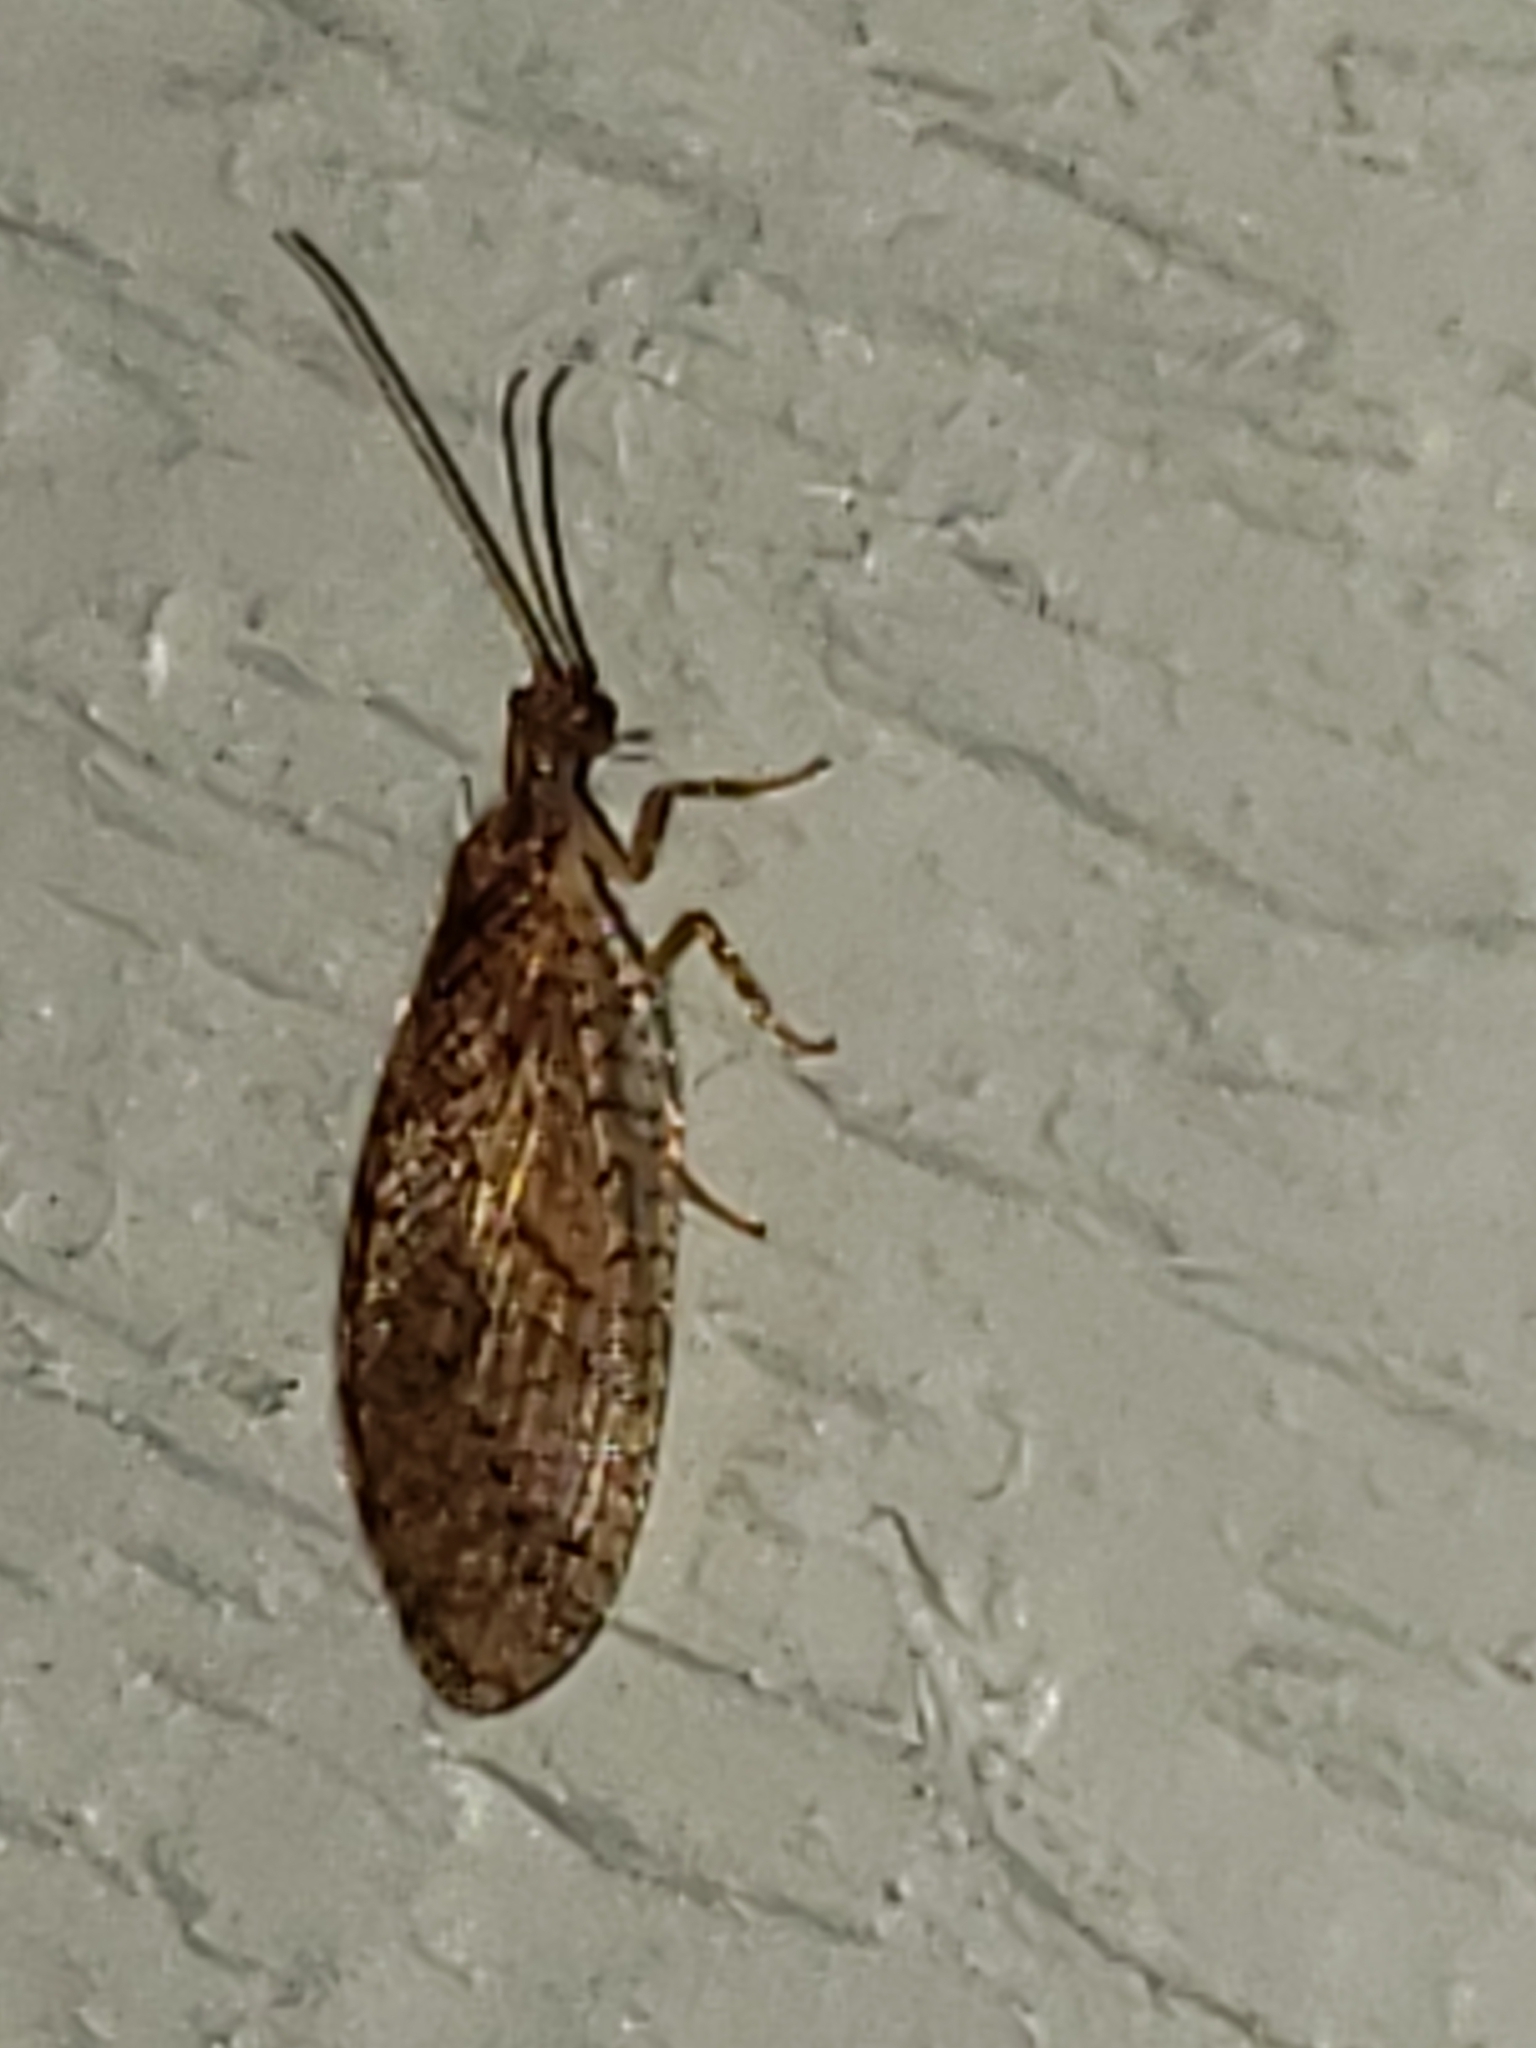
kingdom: Animalia
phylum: Arthropoda
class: Insecta
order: Neuroptera
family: Hemerobiidae
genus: Micromus
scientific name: Micromus posticus
